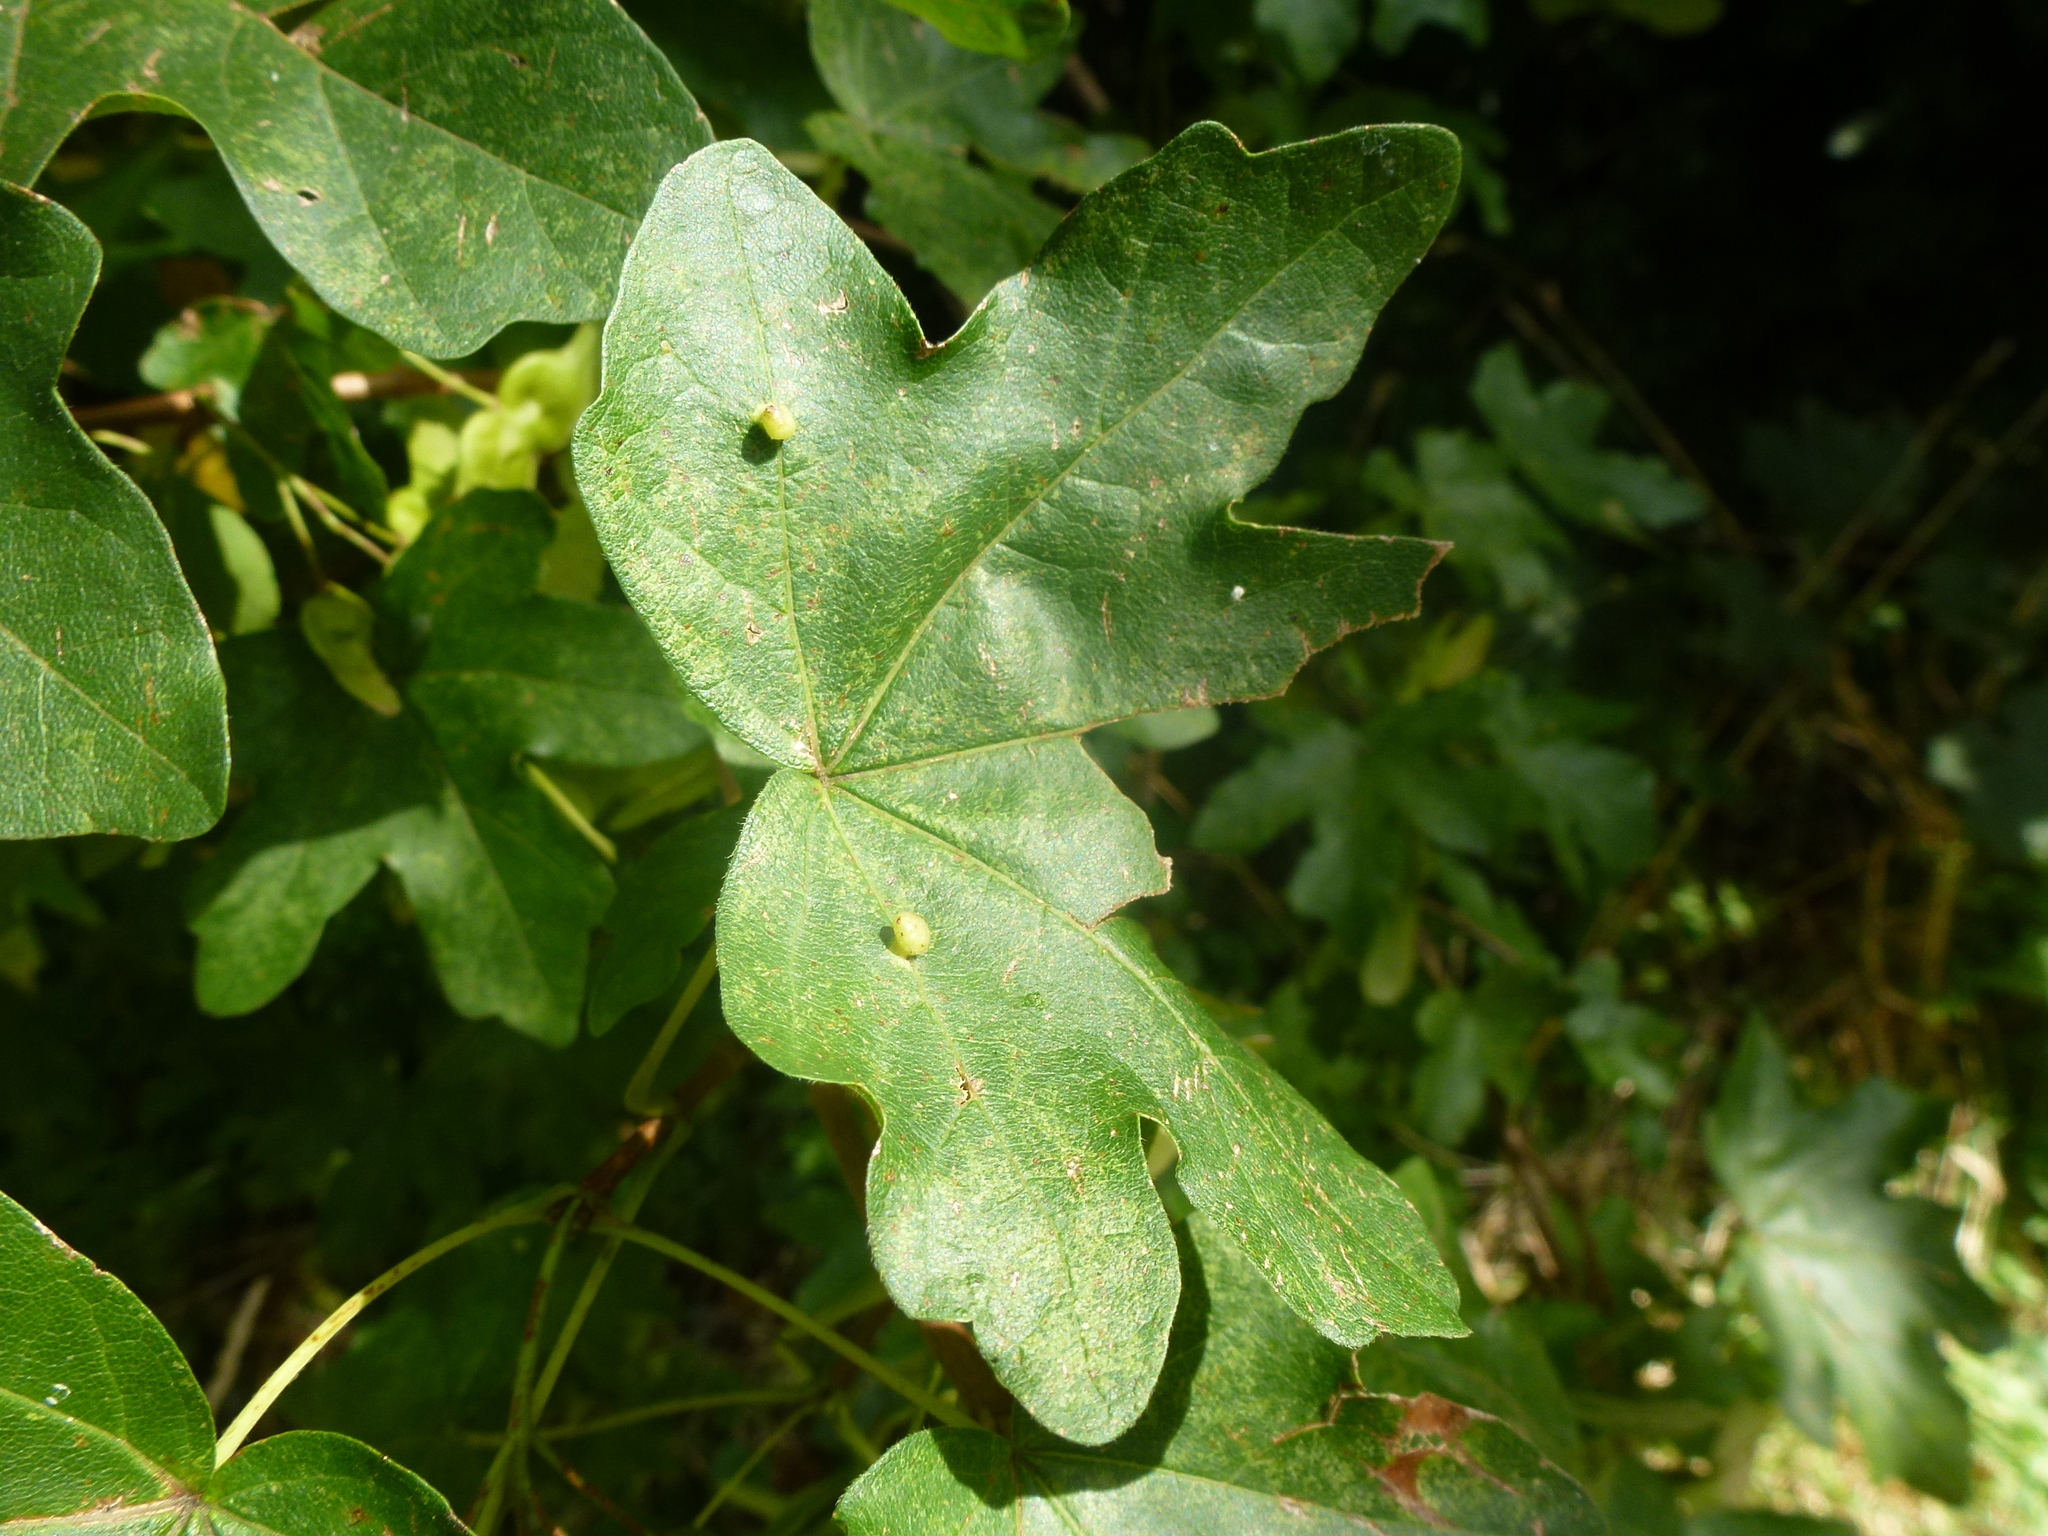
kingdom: Animalia
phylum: Arthropoda
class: Arachnida
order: Trombidiformes
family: Eriophyidae
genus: Aceria
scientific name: Aceria macrochelus
